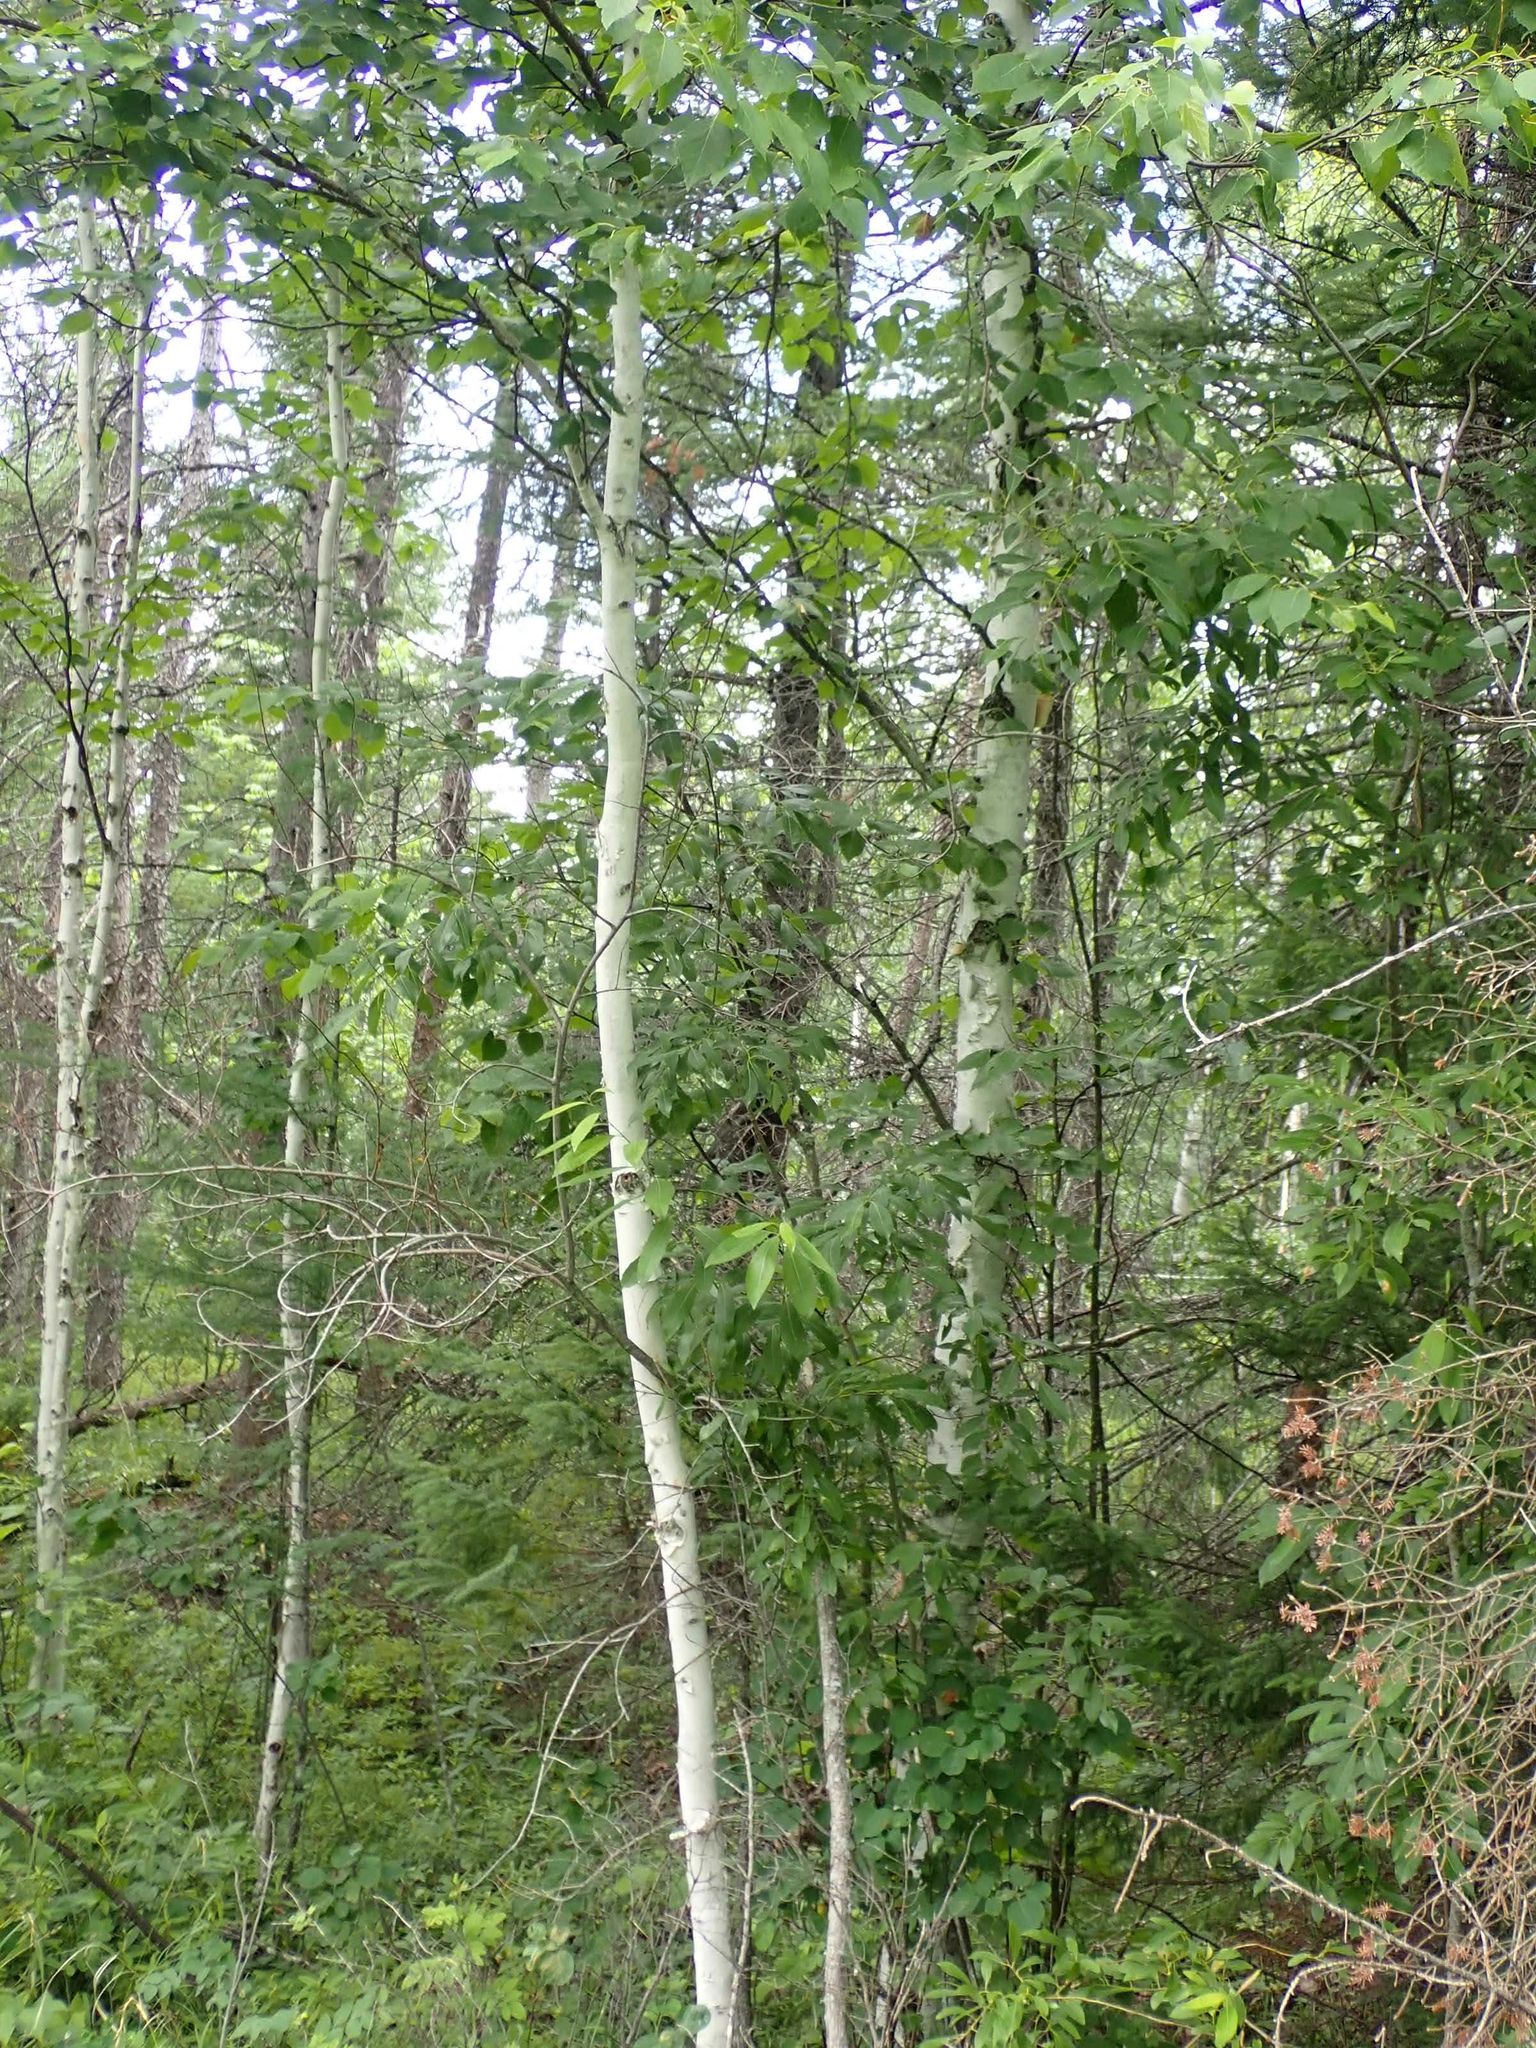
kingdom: Plantae
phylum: Tracheophyta
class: Magnoliopsida
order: Fagales
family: Betulaceae
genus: Betula
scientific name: Betula papyrifera
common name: Paper birch
